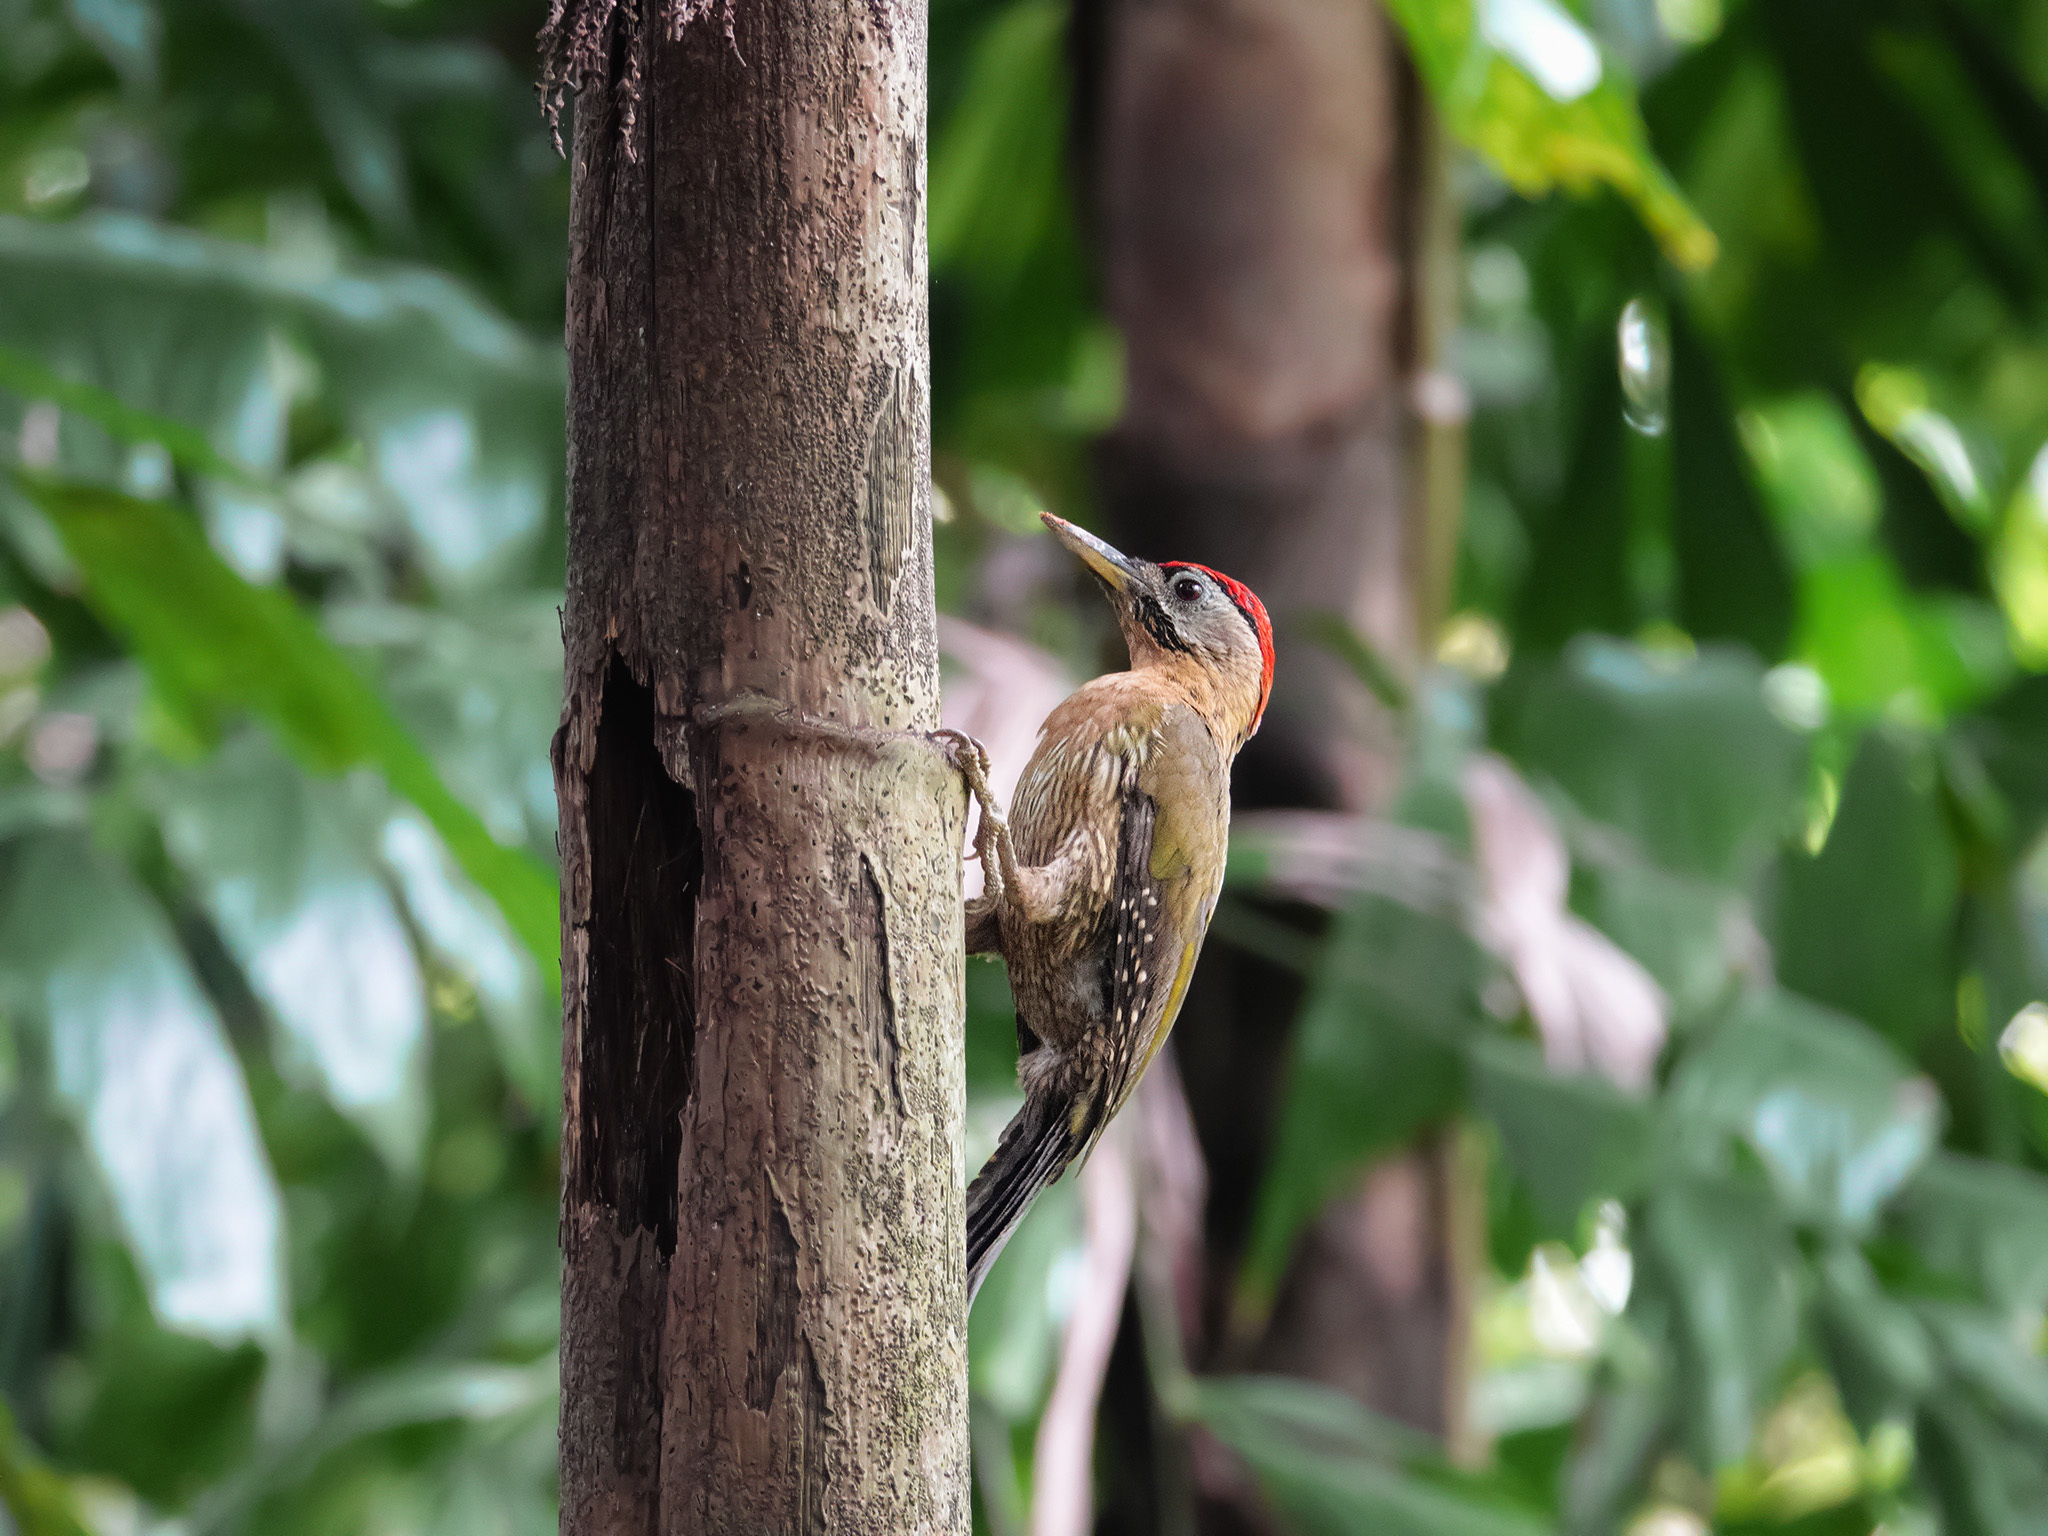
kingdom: Animalia
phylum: Chordata
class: Aves
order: Piciformes
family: Picidae
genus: Picus
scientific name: Picus vittatus
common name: Laced woodpecker
